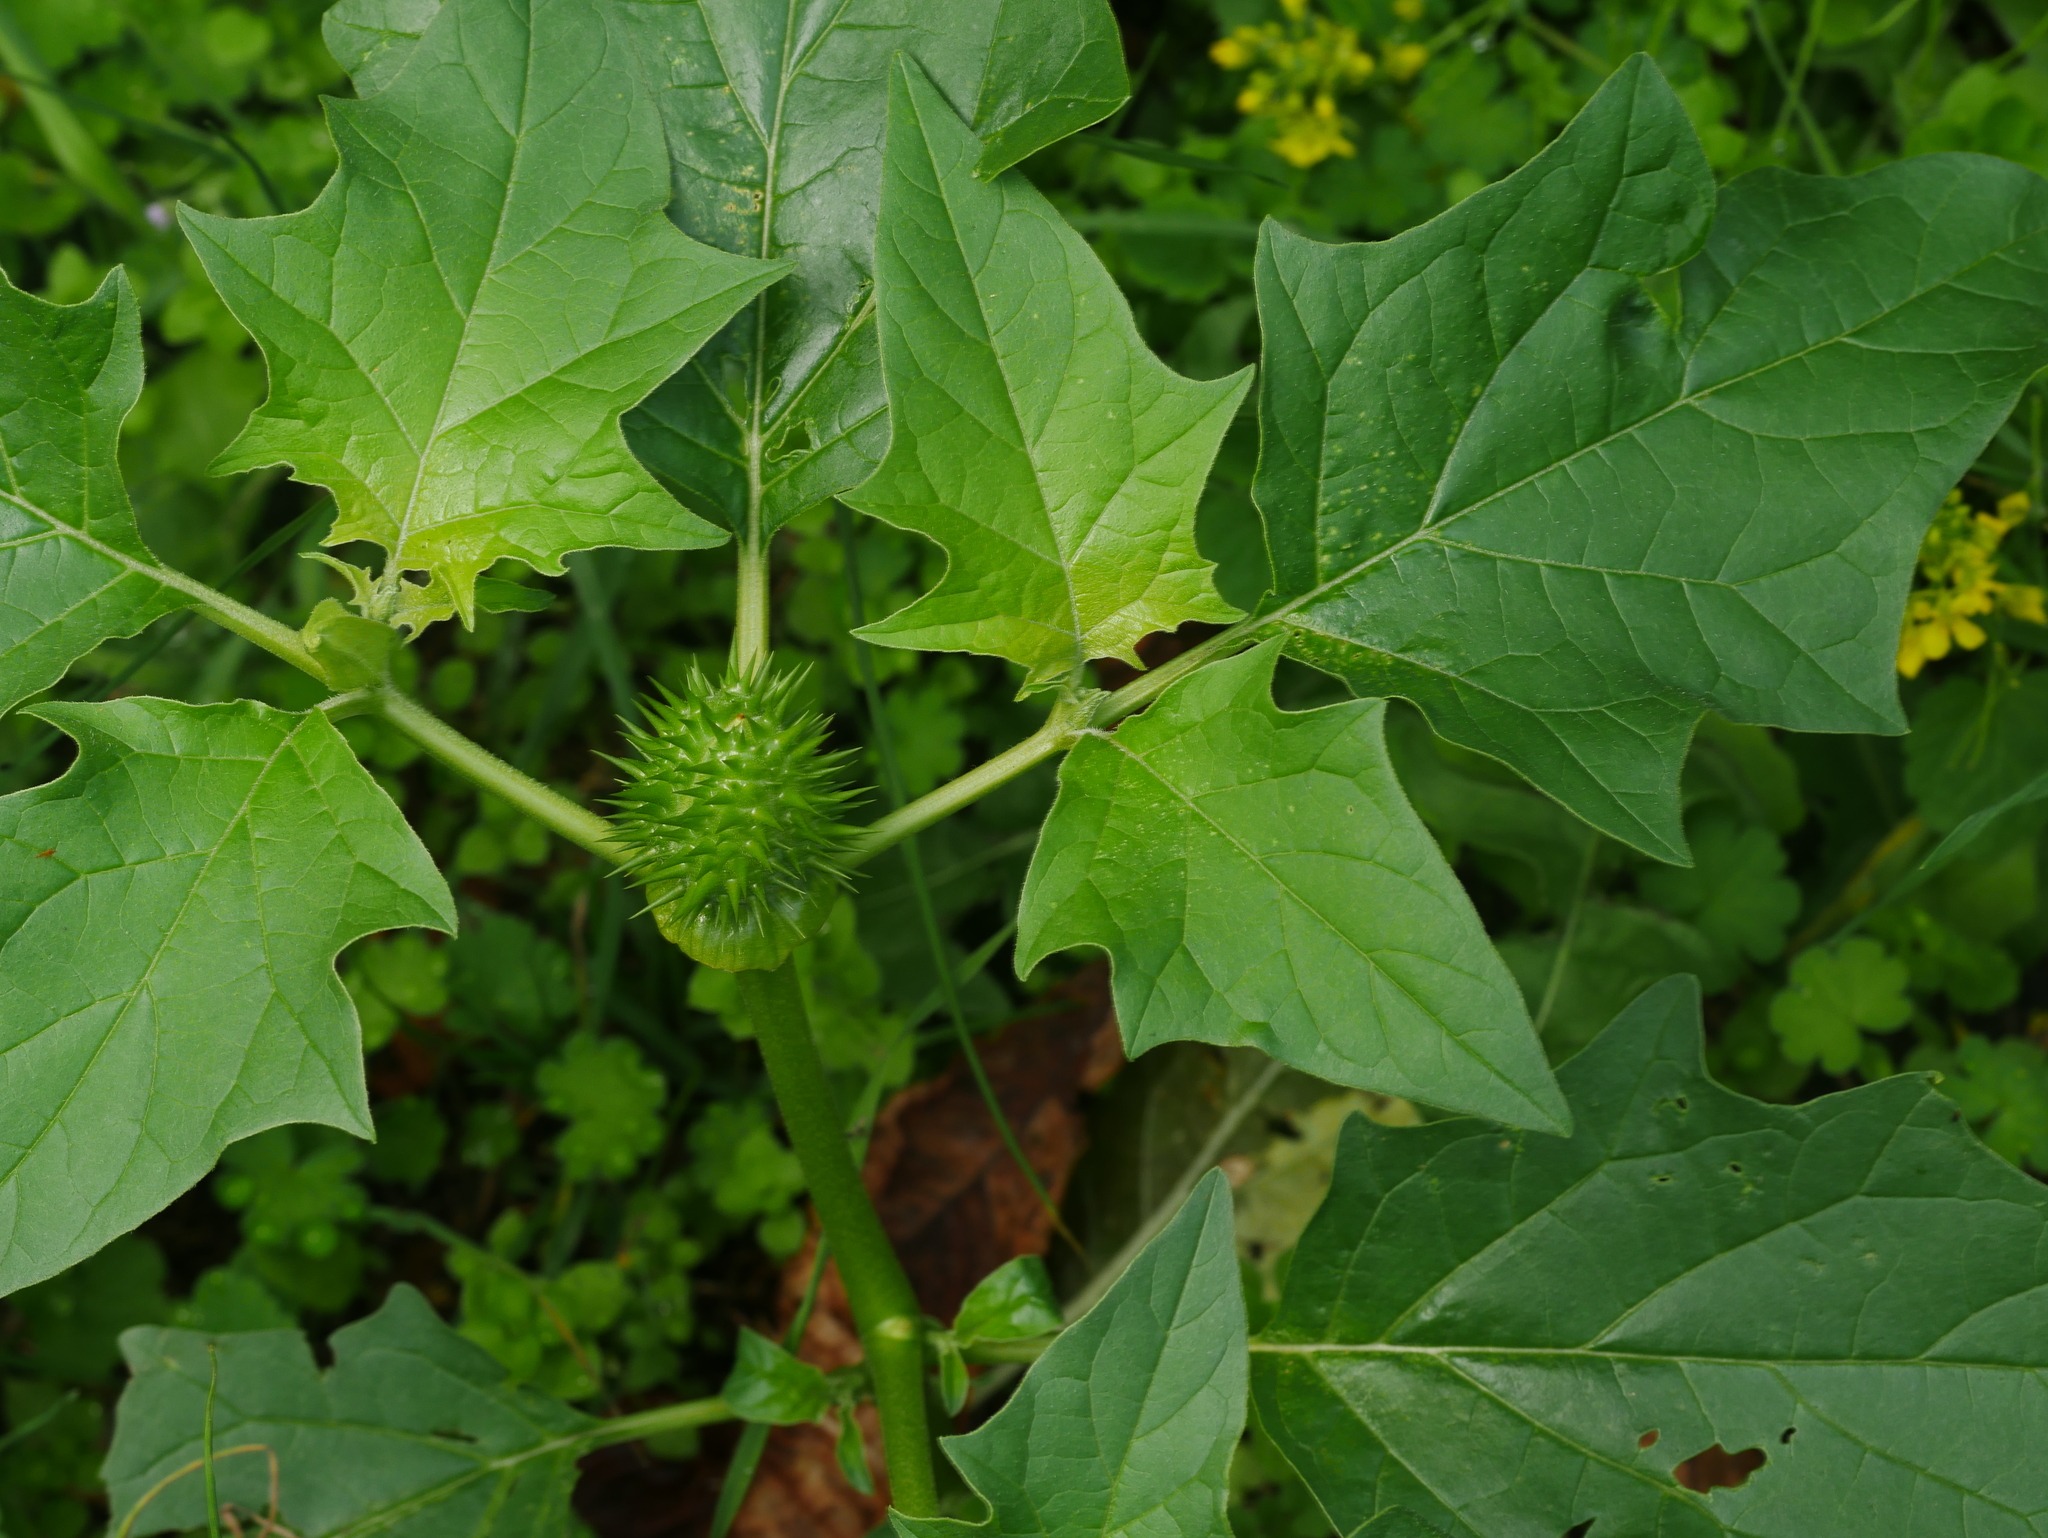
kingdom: Plantae
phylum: Tracheophyta
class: Magnoliopsida
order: Solanales
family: Solanaceae
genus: Datura
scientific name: Datura stramonium
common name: Thorn-apple
